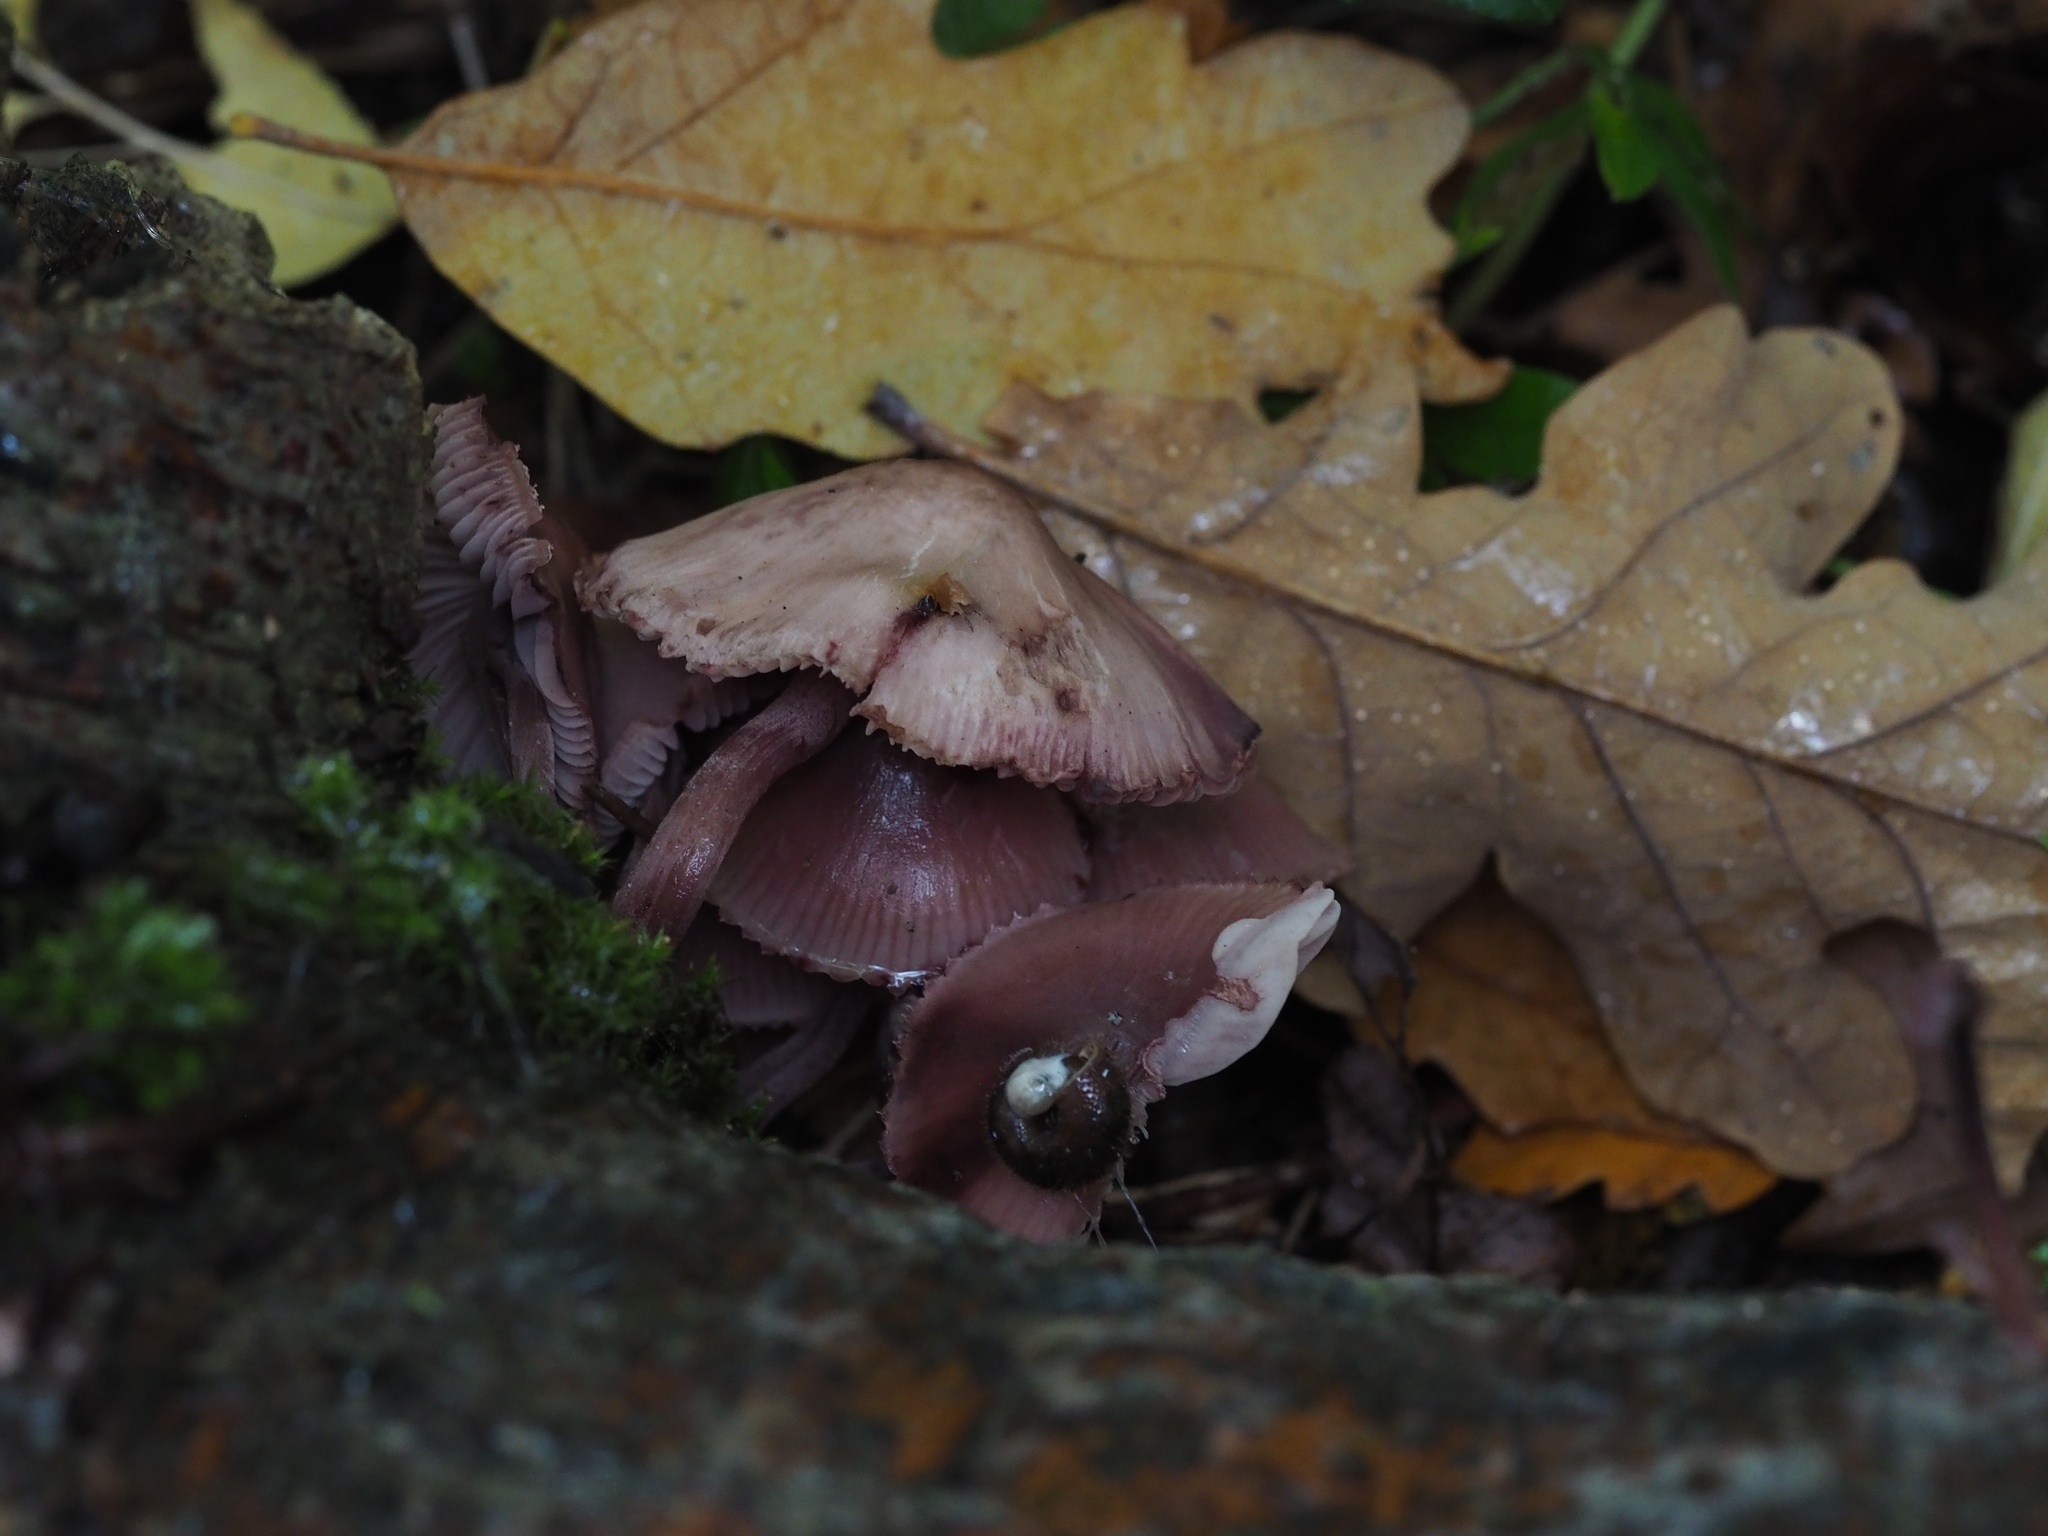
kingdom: Fungi
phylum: Basidiomycota
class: Agaricomycetes
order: Agaricales
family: Mycenaceae
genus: Mycena
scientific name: Mycena haematopus
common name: Burgundydrop bonnet
